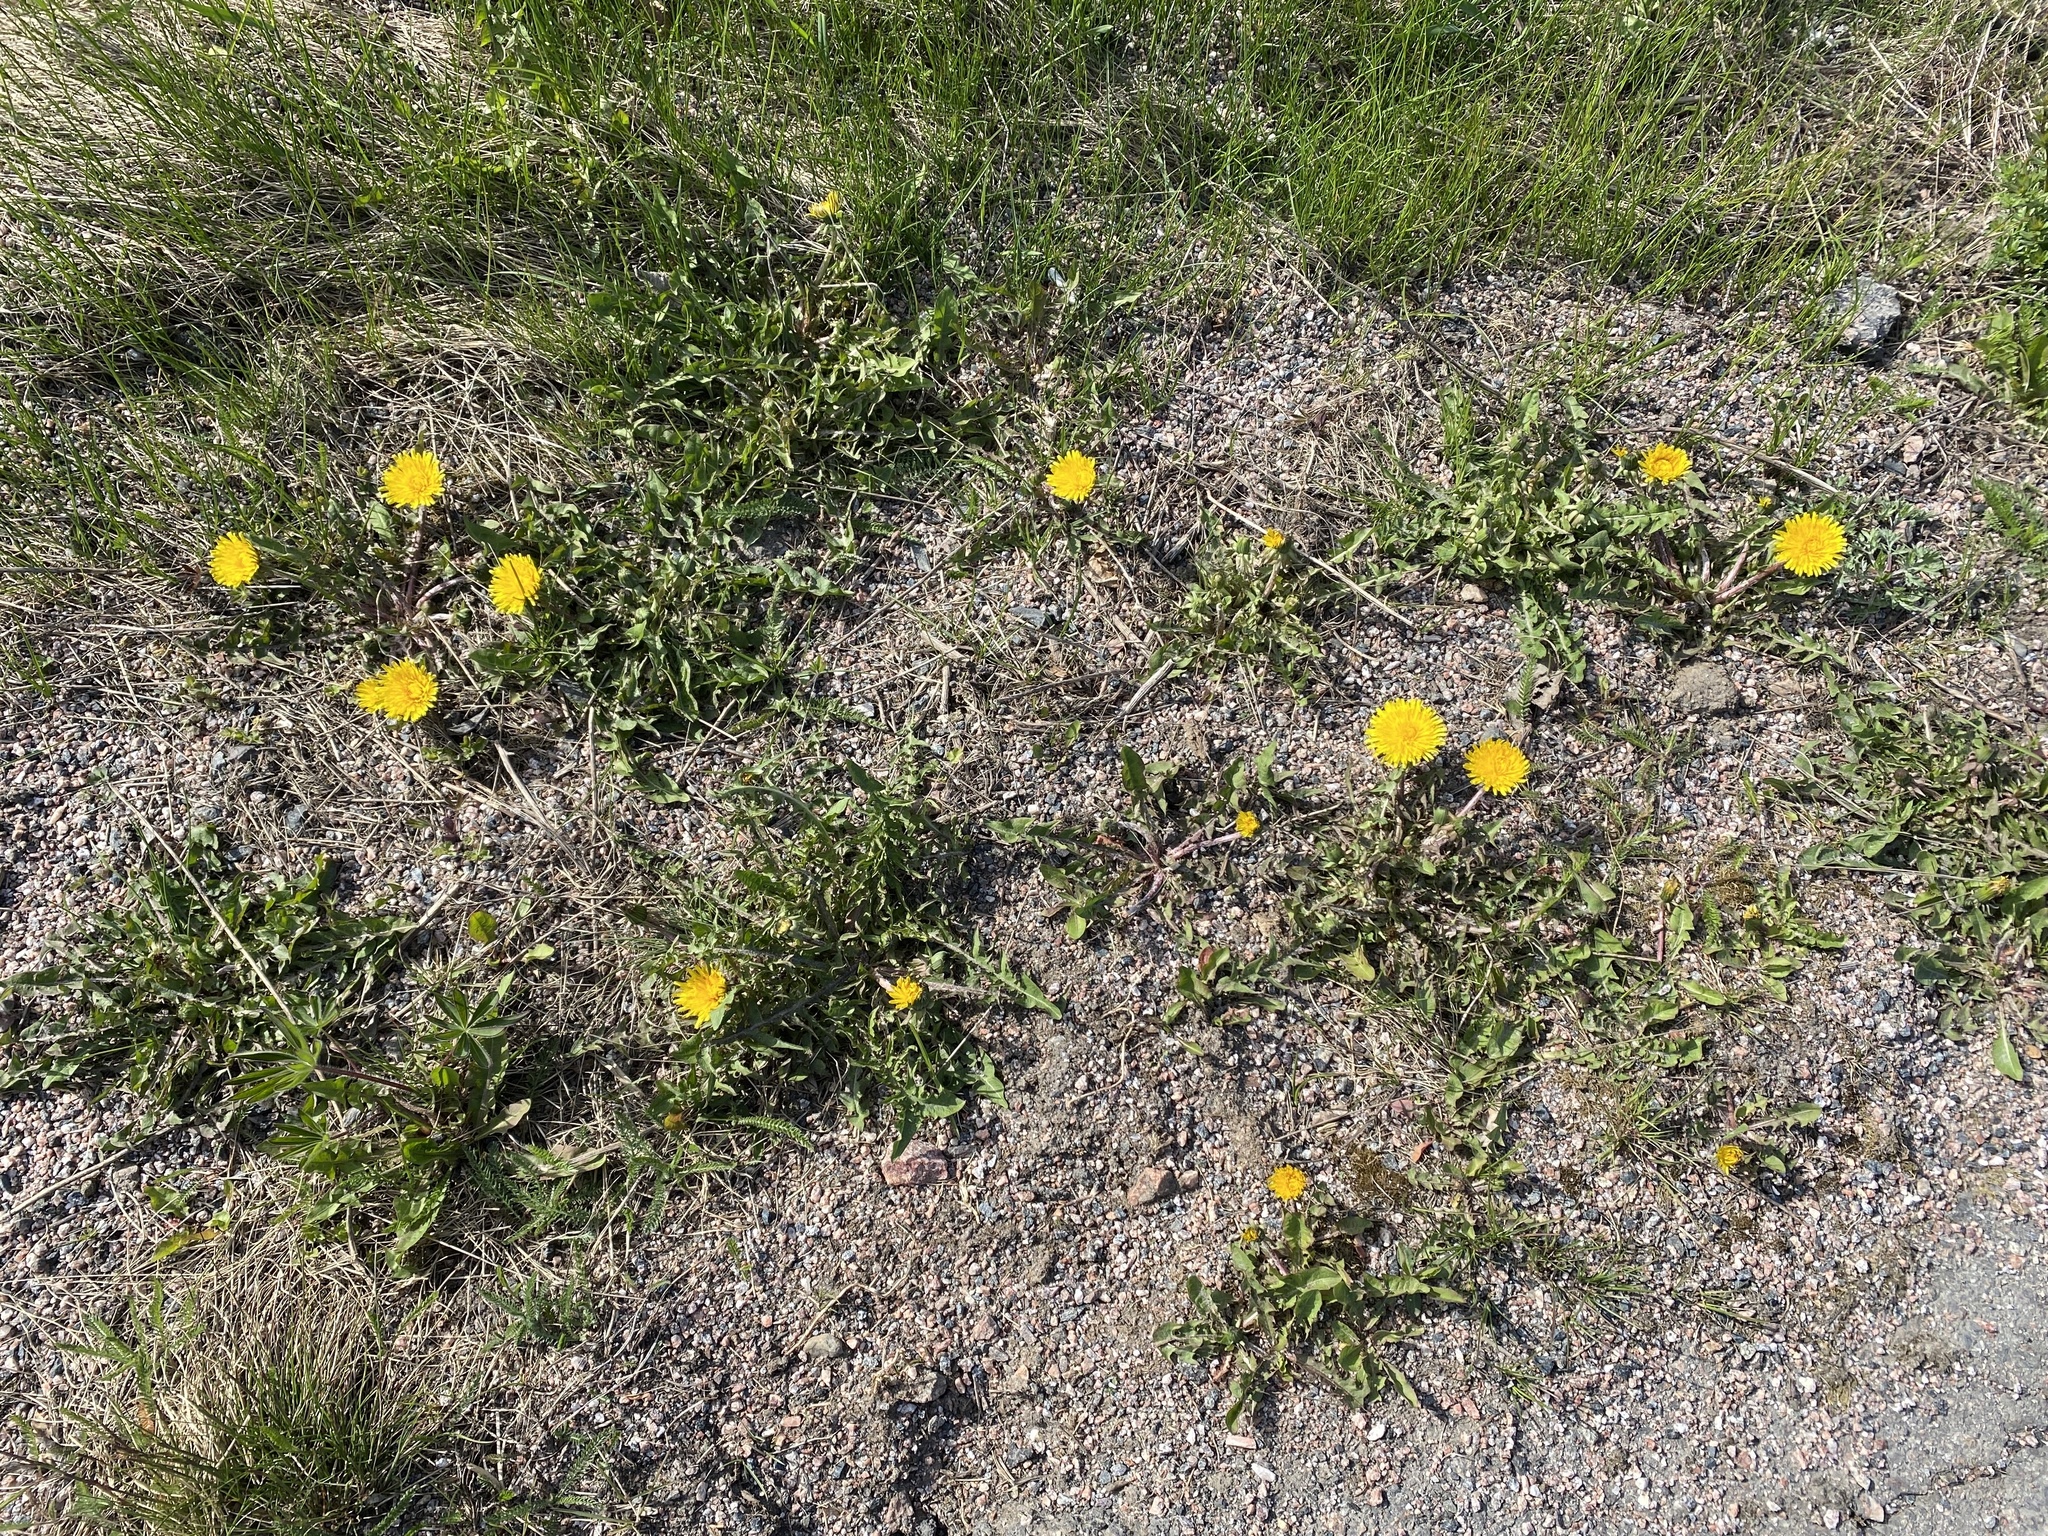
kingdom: Plantae
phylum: Tracheophyta
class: Magnoliopsida
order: Asterales
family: Asteraceae
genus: Taraxacum
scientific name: Taraxacum officinale
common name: Common dandelion
